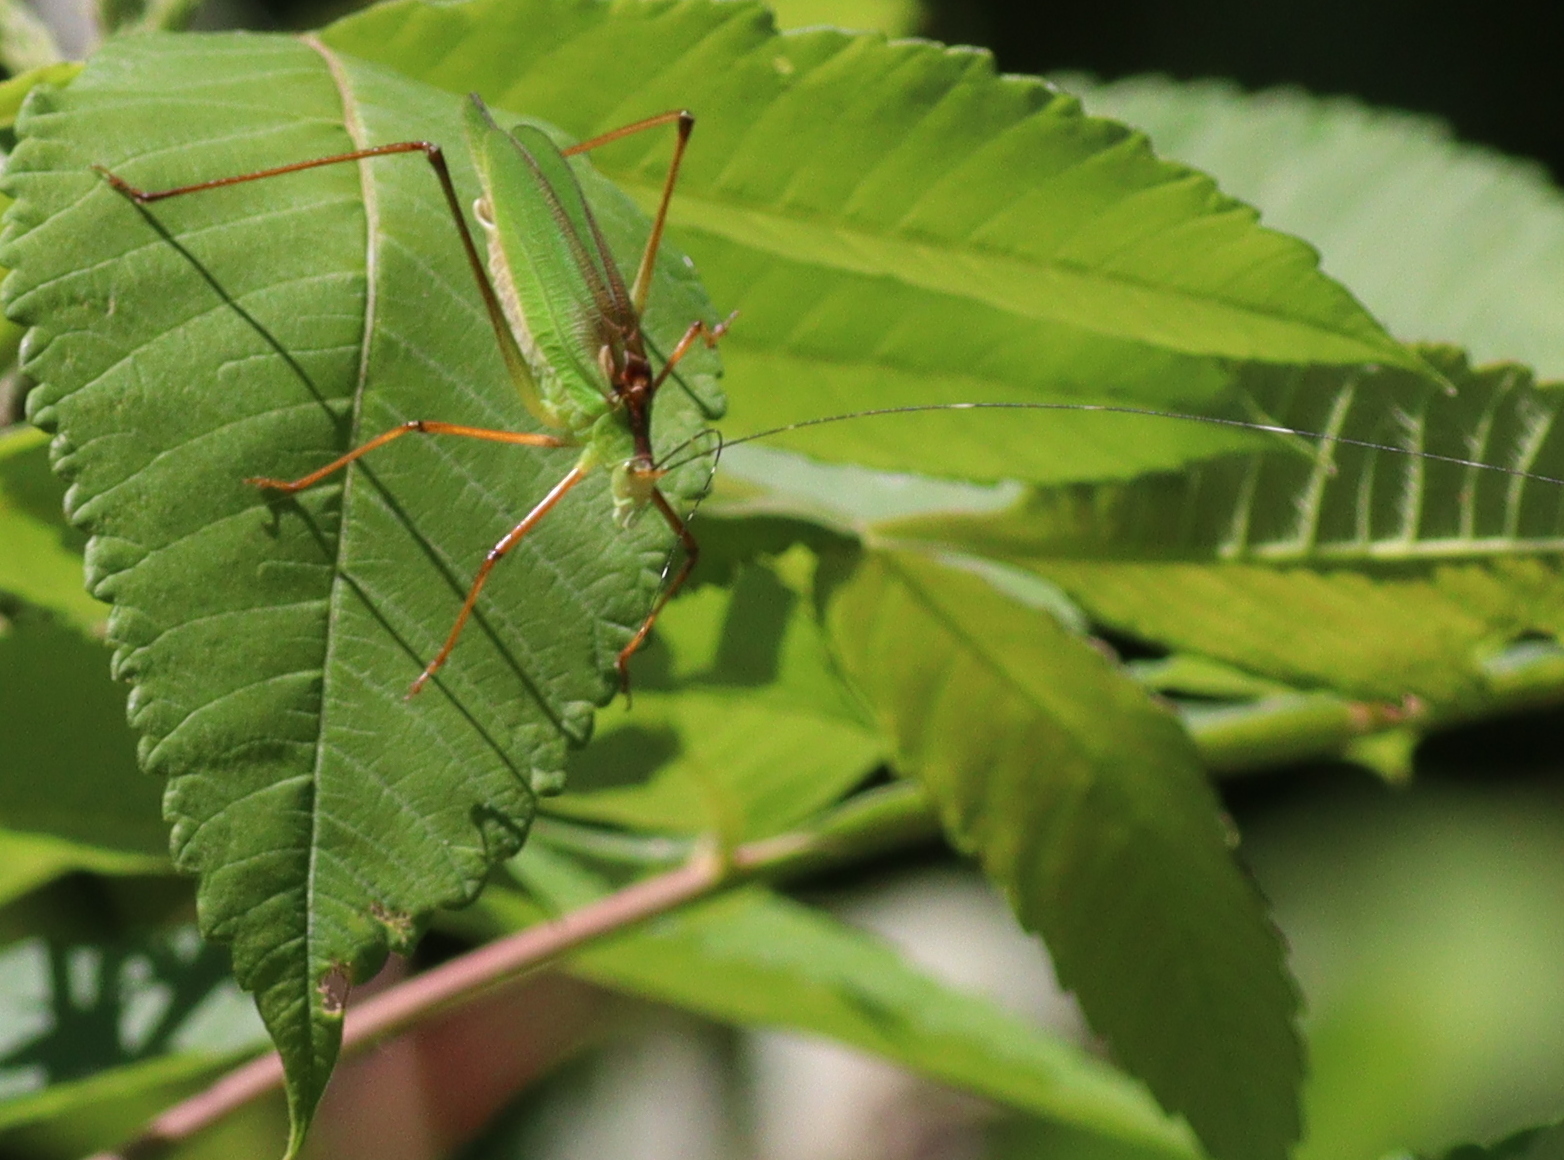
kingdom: Animalia
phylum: Arthropoda
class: Insecta
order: Orthoptera
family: Tettigoniidae
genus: Shirakisotima
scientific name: Shirakisotima japonica
